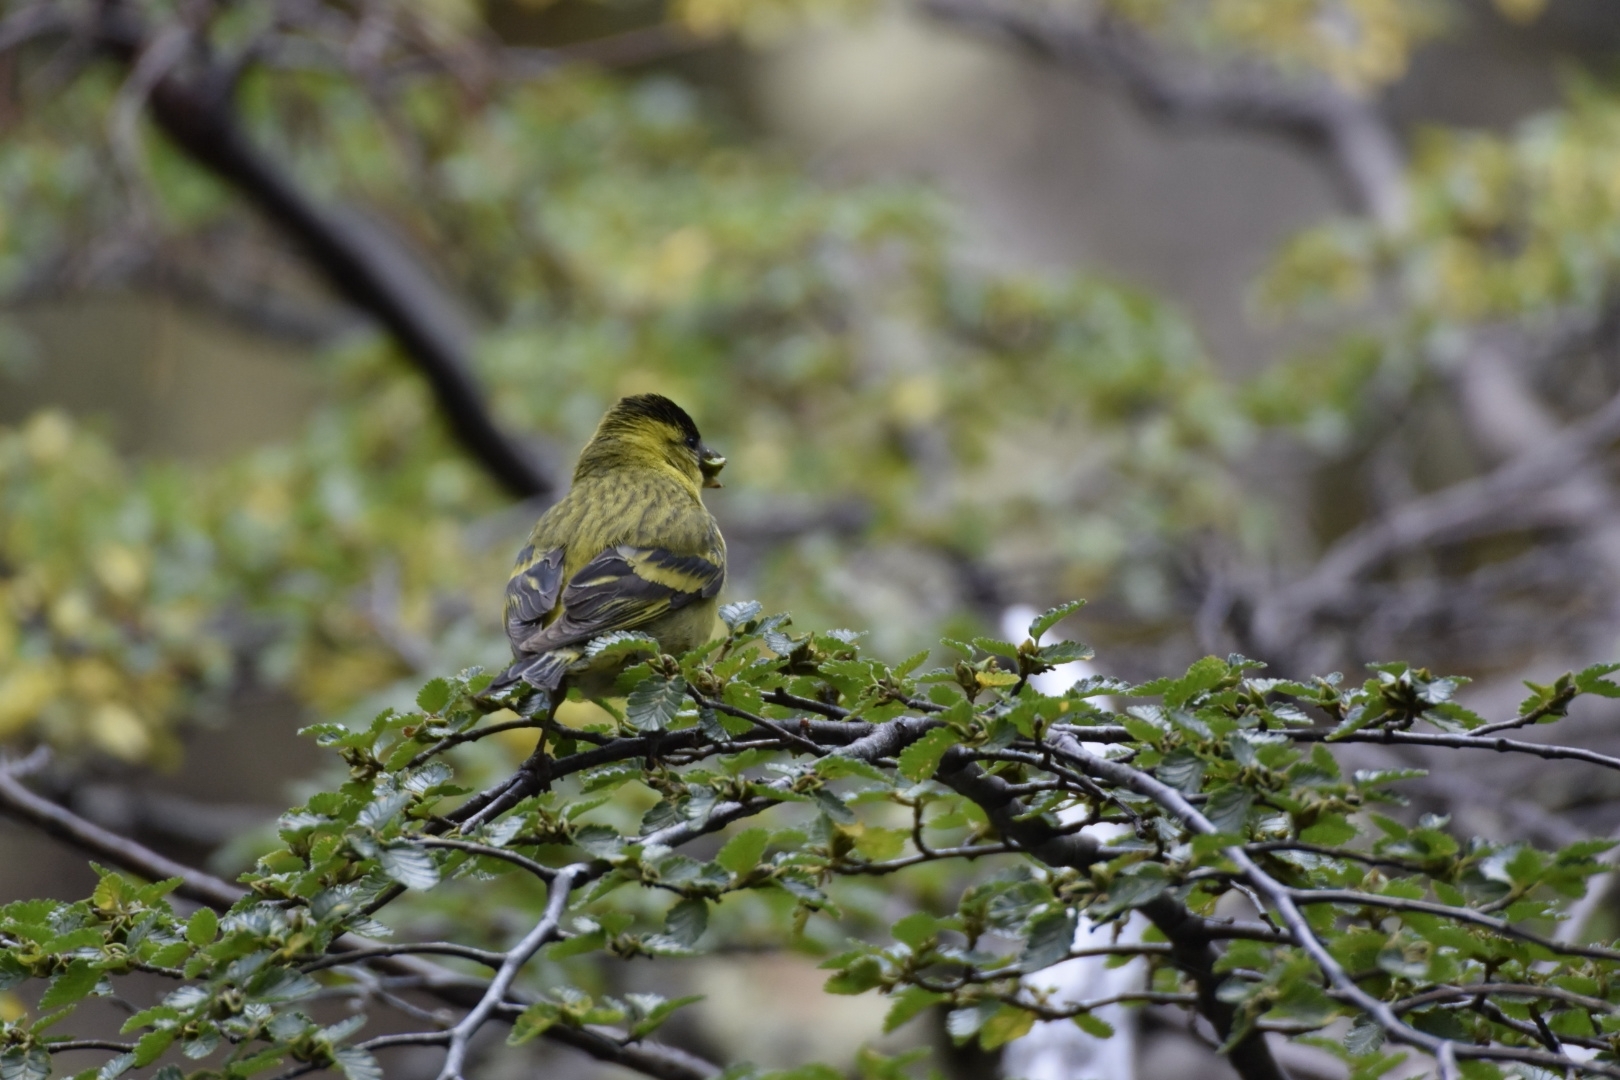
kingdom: Animalia
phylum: Chordata
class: Aves
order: Passeriformes
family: Fringillidae
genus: Spinus
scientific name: Spinus barbatus
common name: Black-chinned siskin
